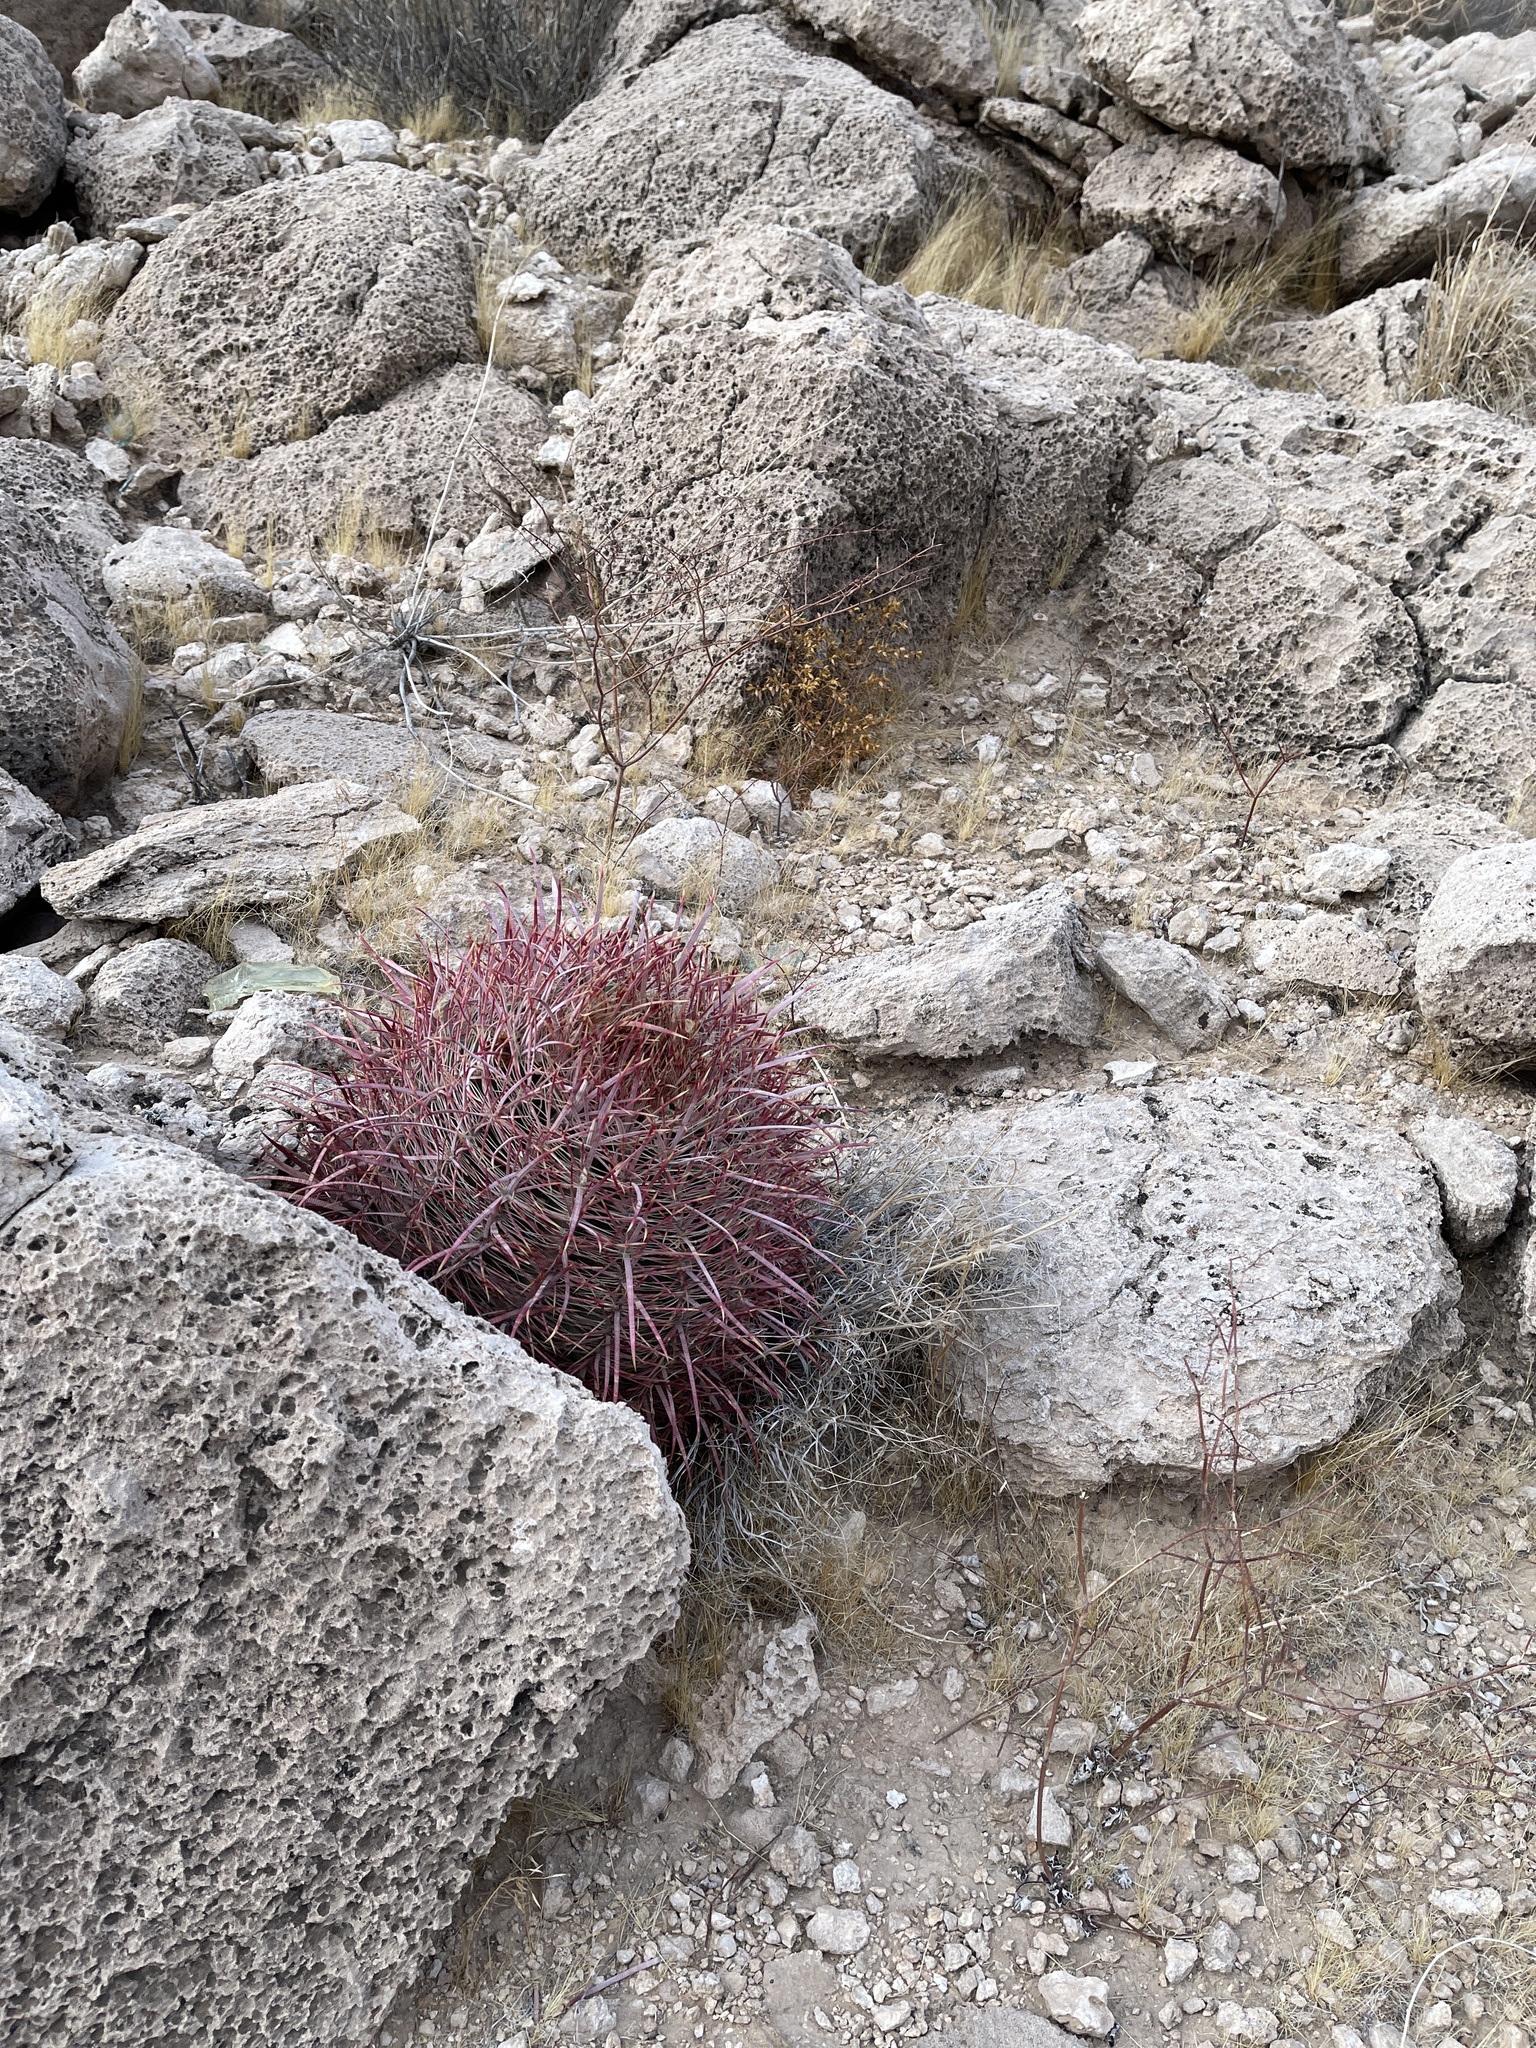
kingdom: Plantae
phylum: Tracheophyta
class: Magnoliopsida
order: Caryophyllales
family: Cactaceae
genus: Ferocactus
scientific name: Ferocactus cylindraceus
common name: California barrel cactus
